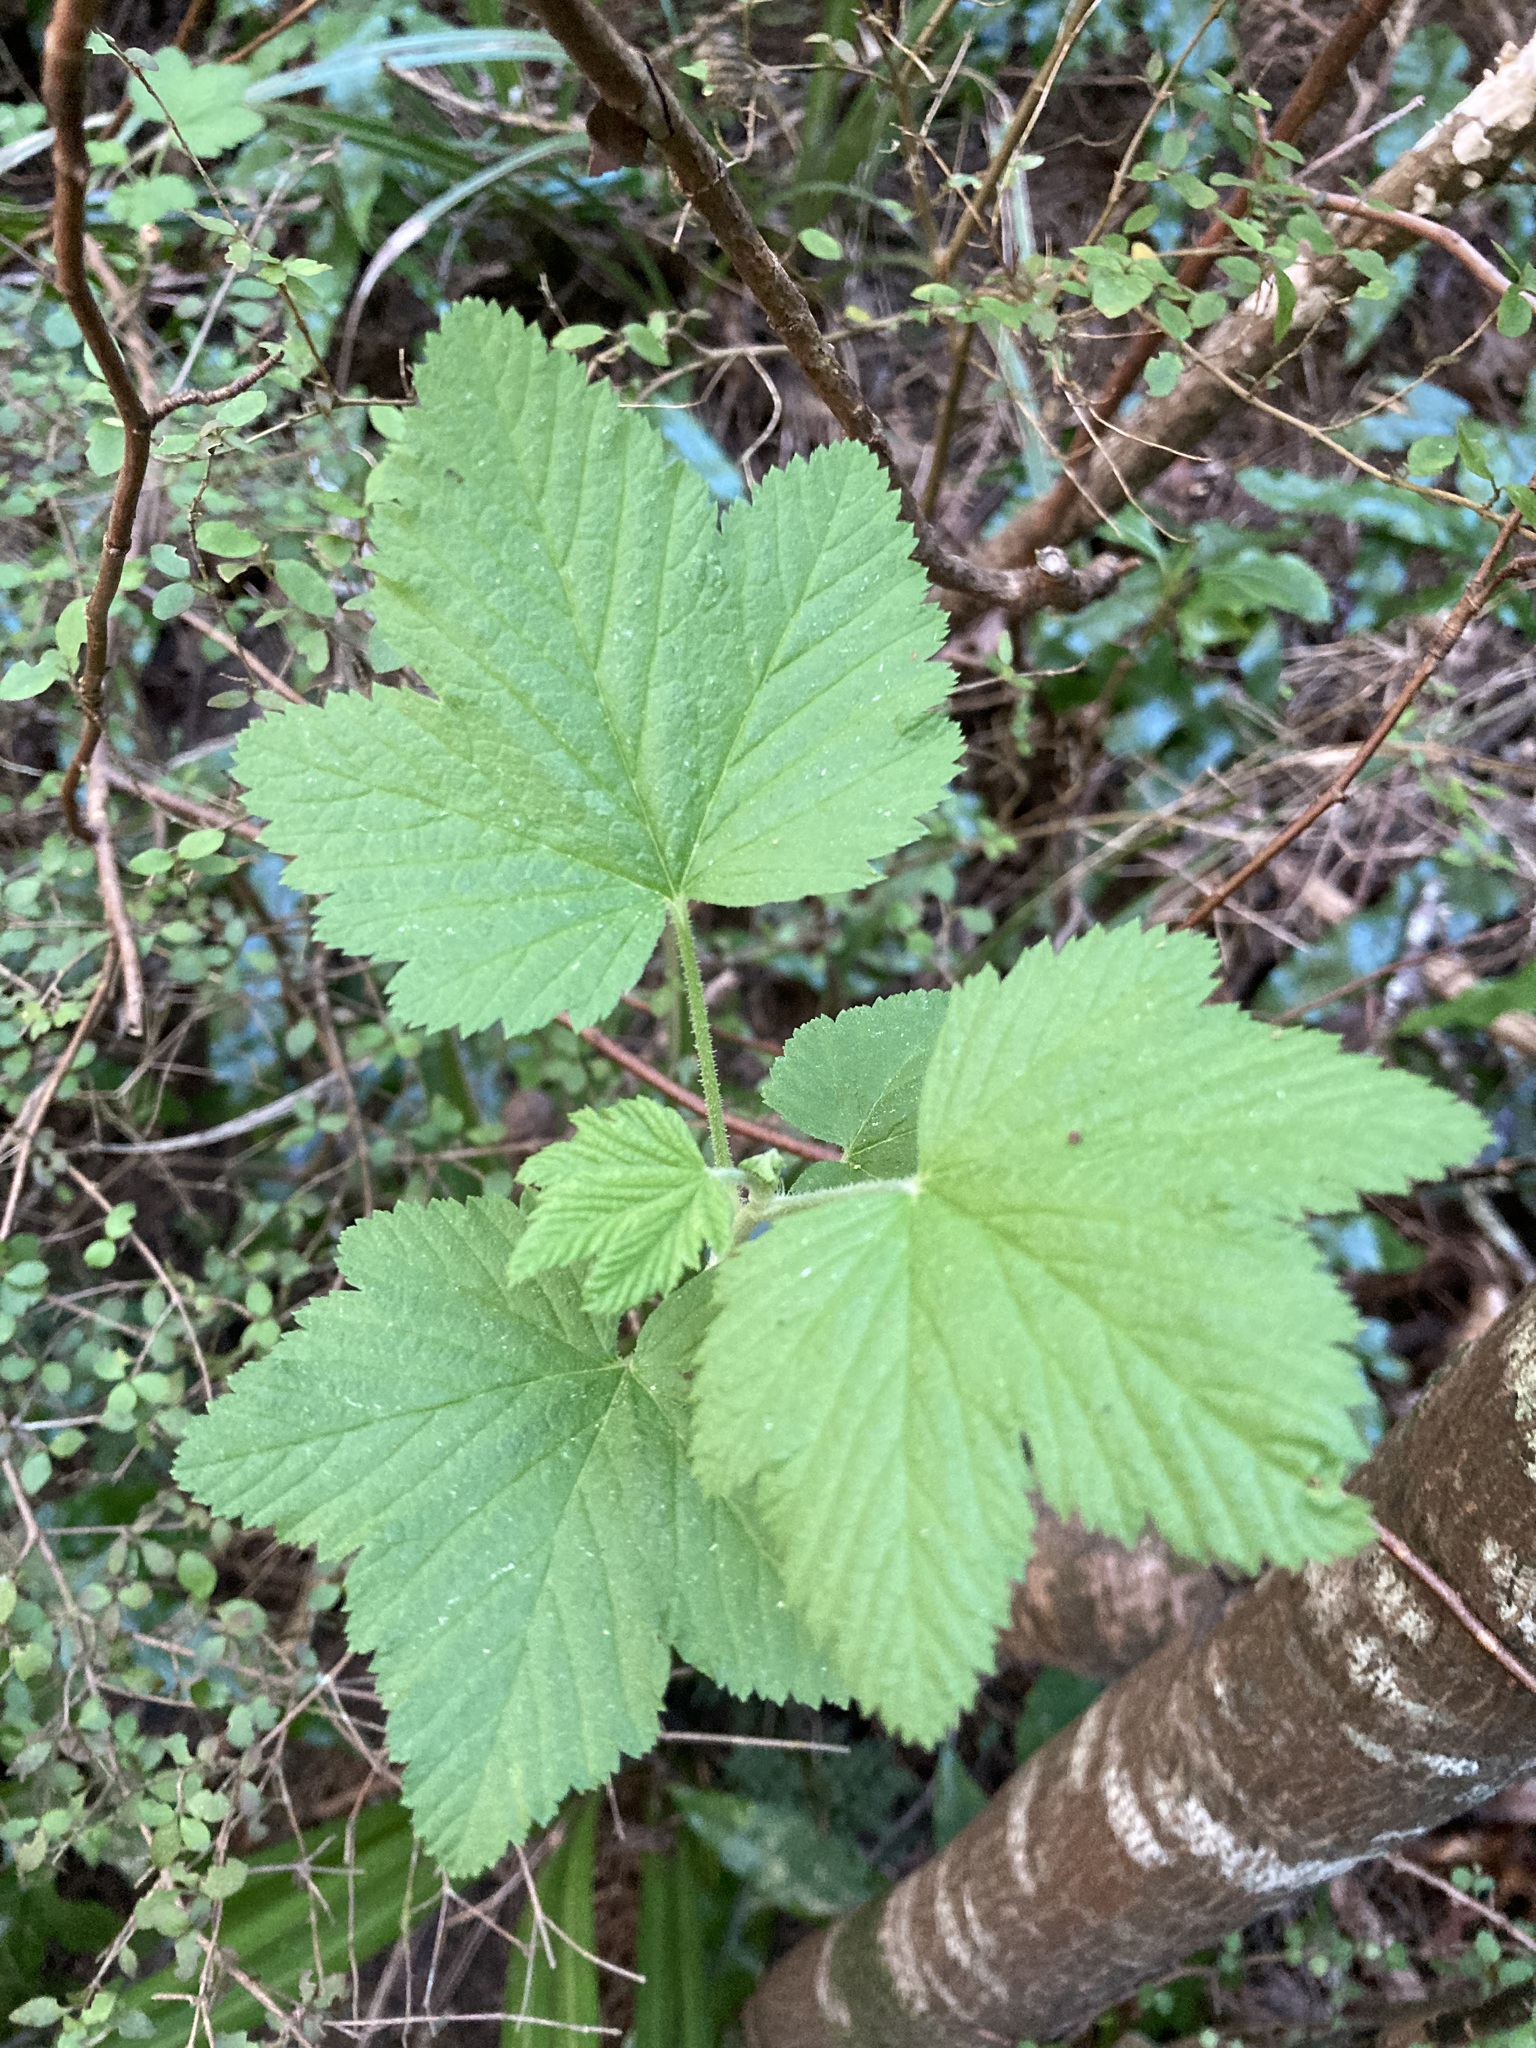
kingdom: Plantae
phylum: Tracheophyta
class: Magnoliopsida
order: Saxifragales
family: Grossulariaceae
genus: Ribes
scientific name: Ribes sanguineum
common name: Flowering currant
